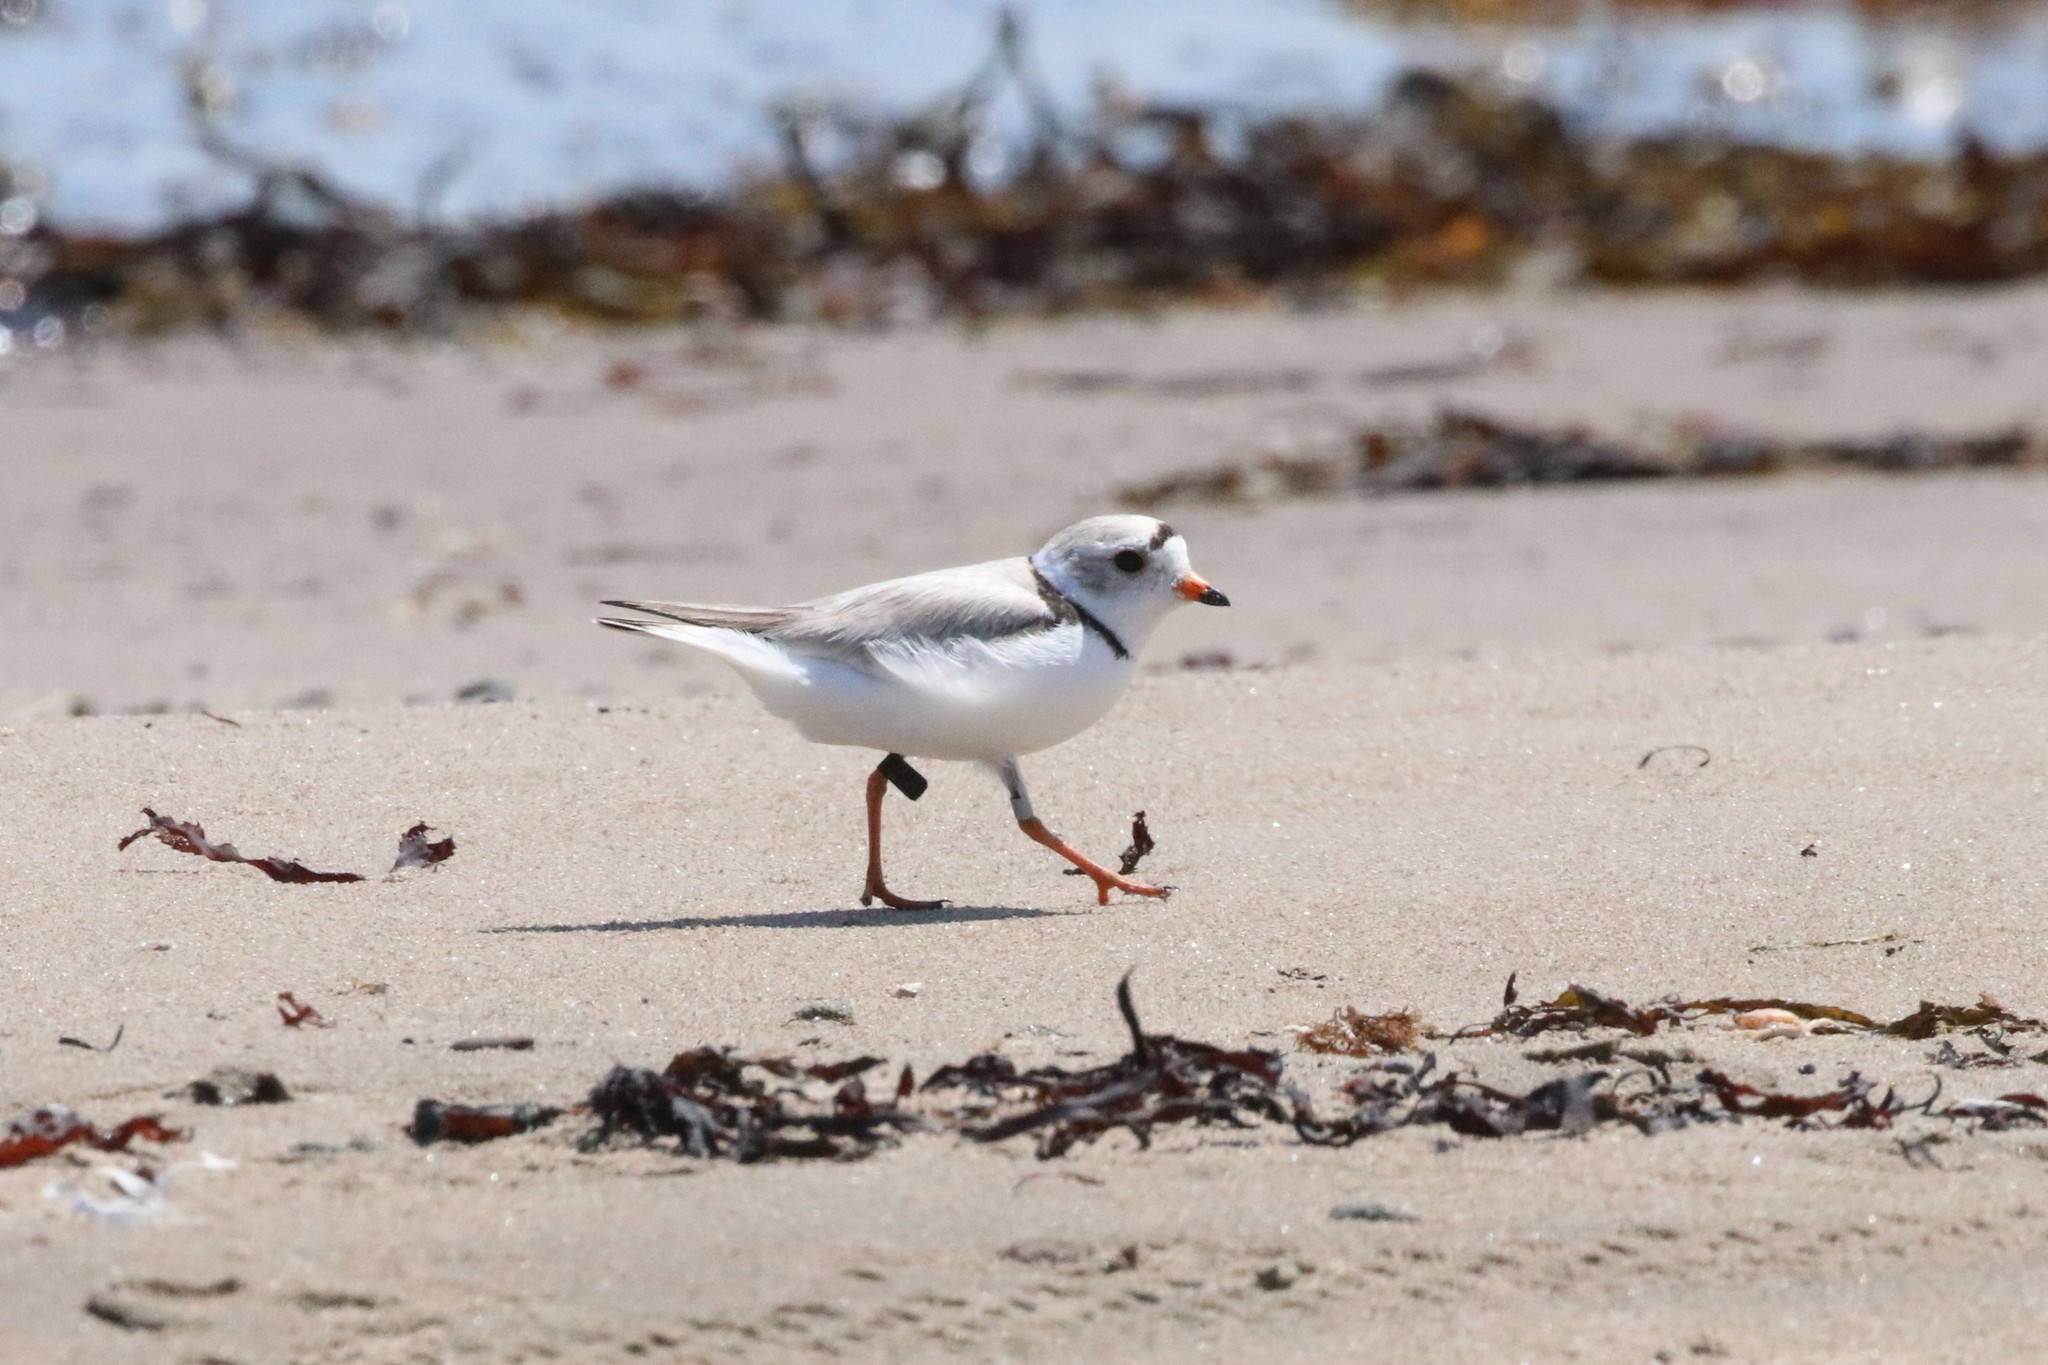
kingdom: Animalia
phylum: Chordata
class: Aves
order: Charadriiformes
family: Charadriidae
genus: Charadrius
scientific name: Charadrius melodus
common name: Piping plover
